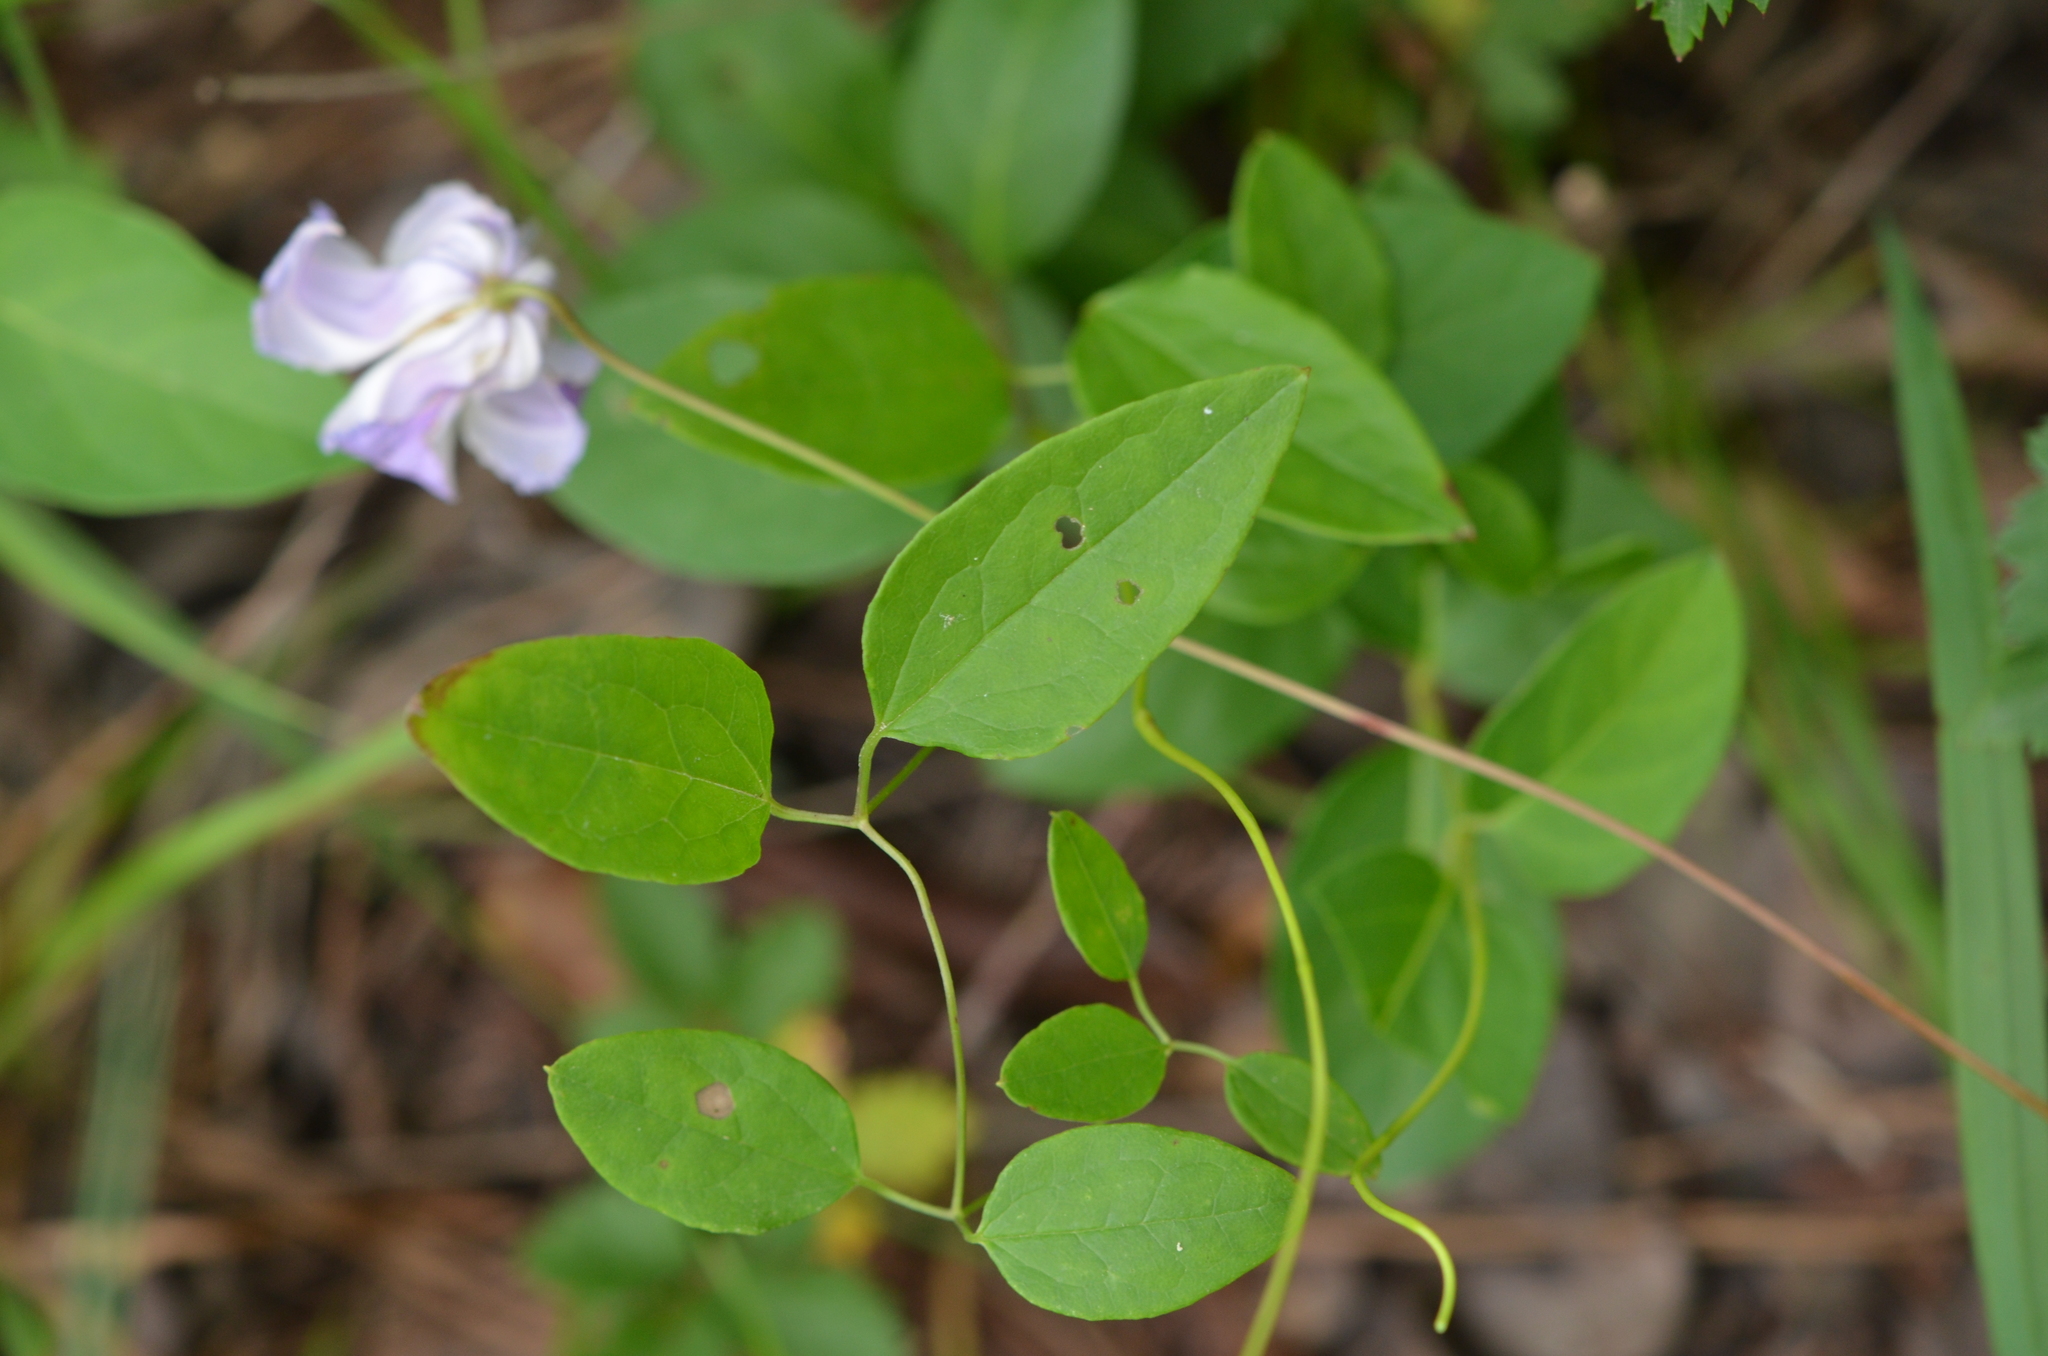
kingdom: Plantae
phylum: Tracheophyta
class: Magnoliopsida
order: Ranunculales
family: Ranunculaceae
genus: Clematis
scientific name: Clematis crispa
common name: Curly clematis
